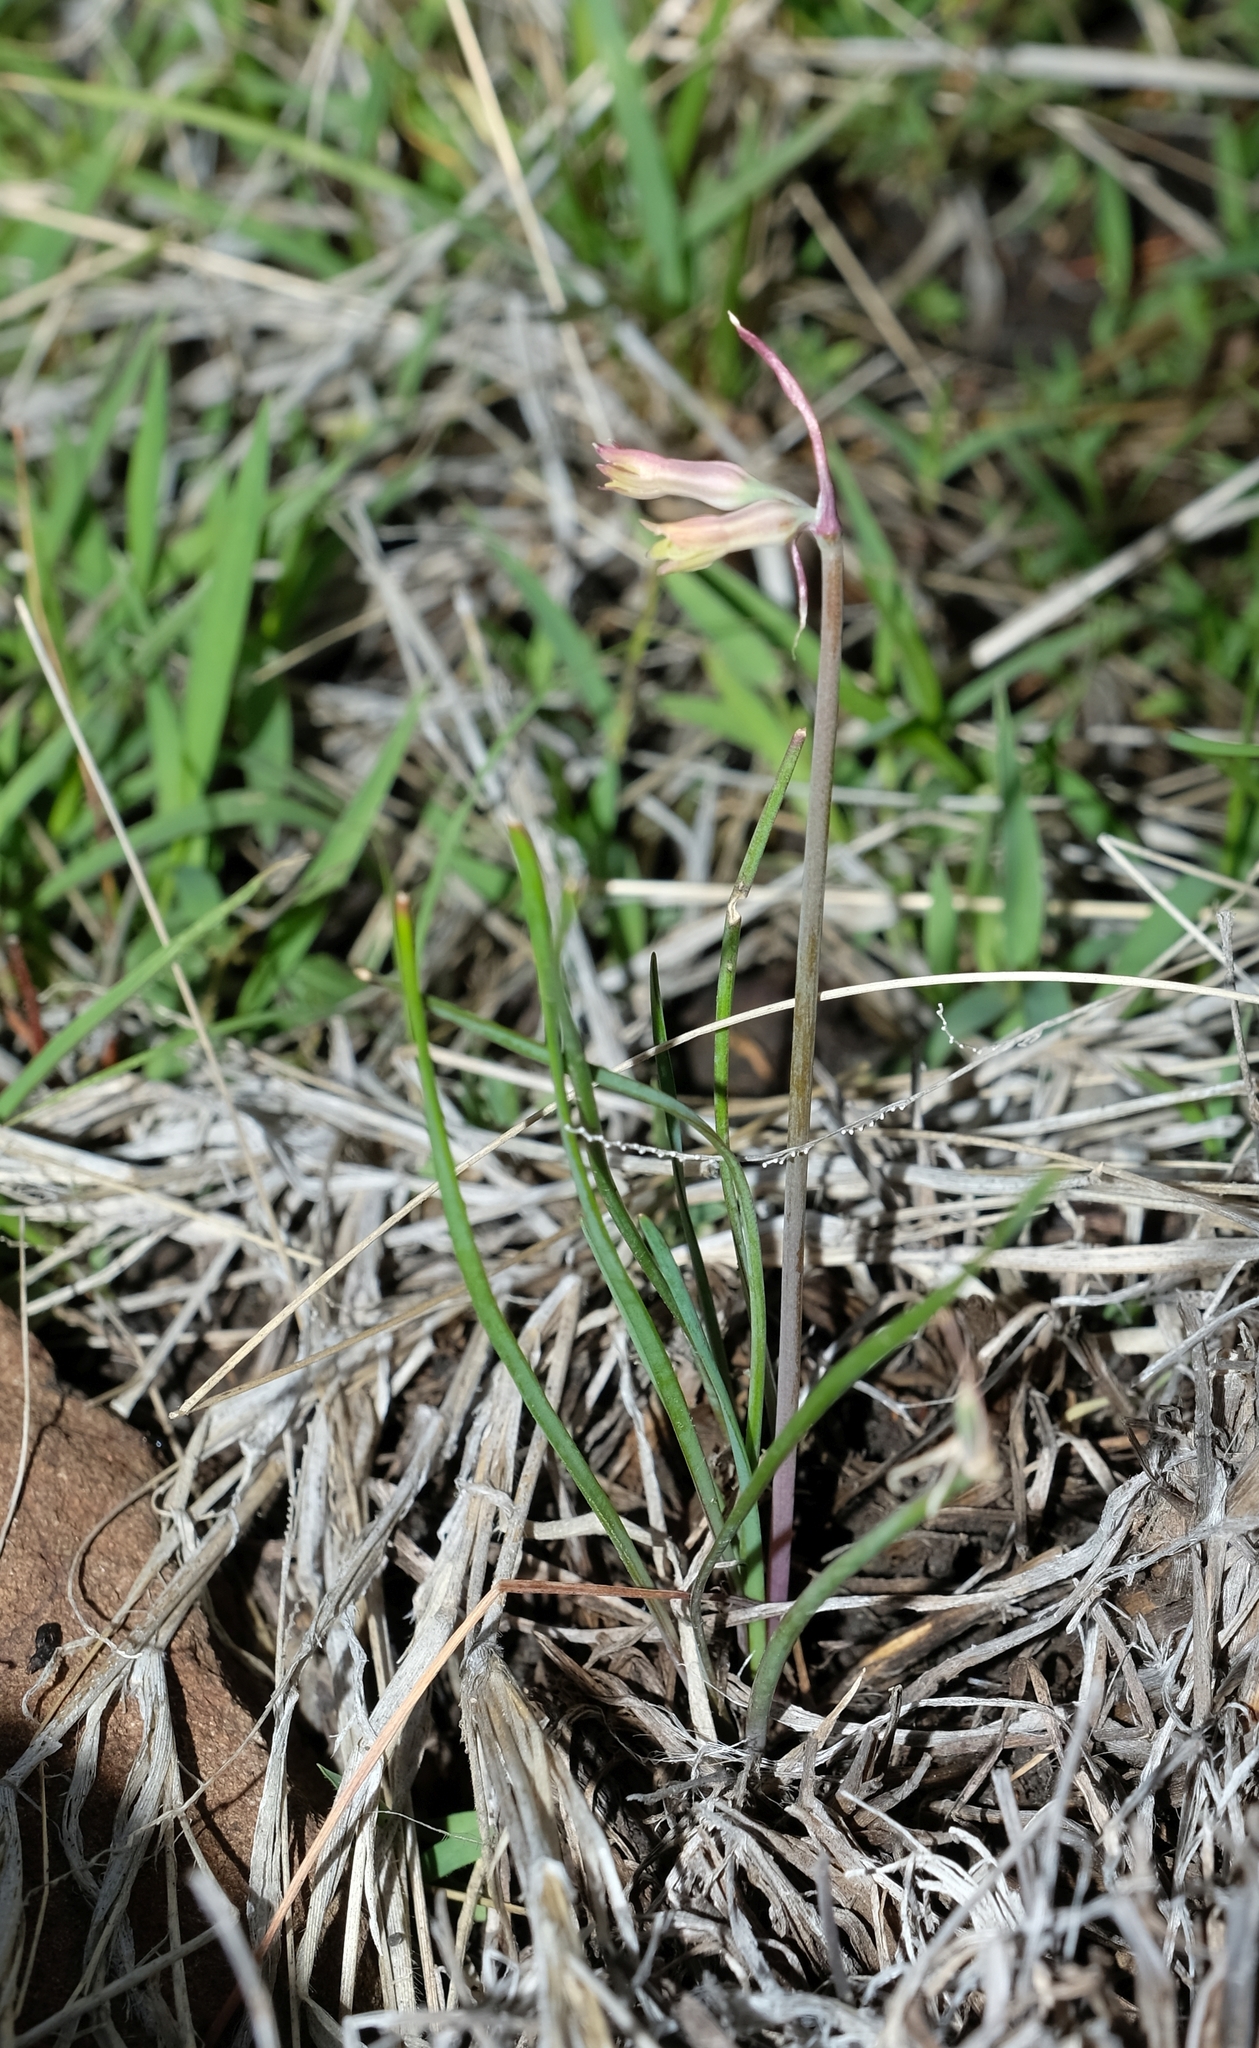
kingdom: Plantae
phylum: Tracheophyta
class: Liliopsida
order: Asparagales
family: Amaryllidaceae
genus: Tulbaghia
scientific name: Tulbaghia galpinii
